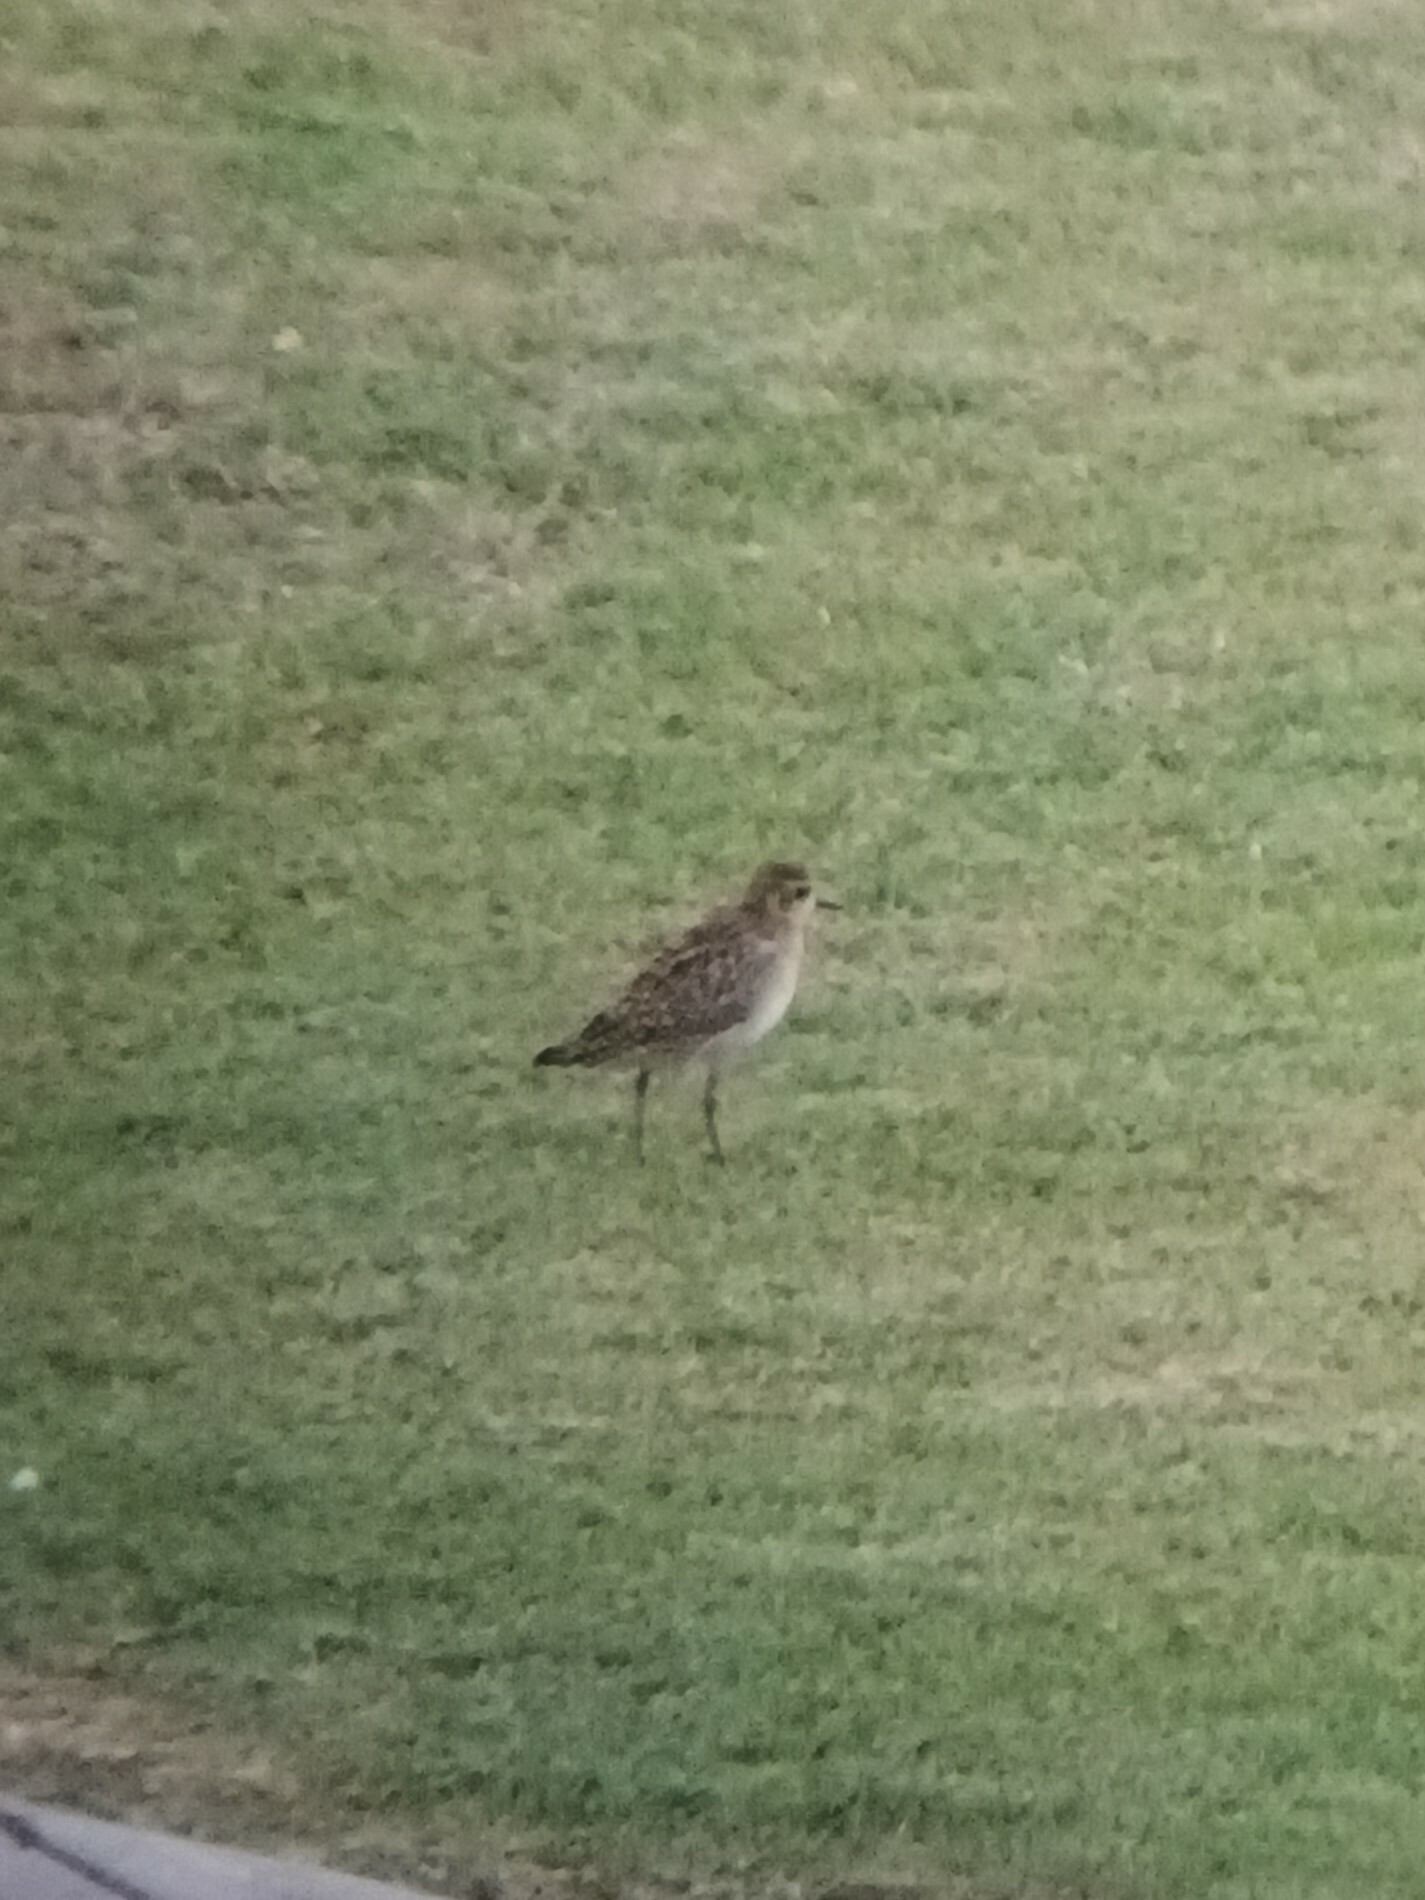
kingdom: Animalia
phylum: Chordata
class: Aves
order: Charadriiformes
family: Charadriidae
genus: Pluvialis
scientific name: Pluvialis fulva
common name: Pacific golden plover
